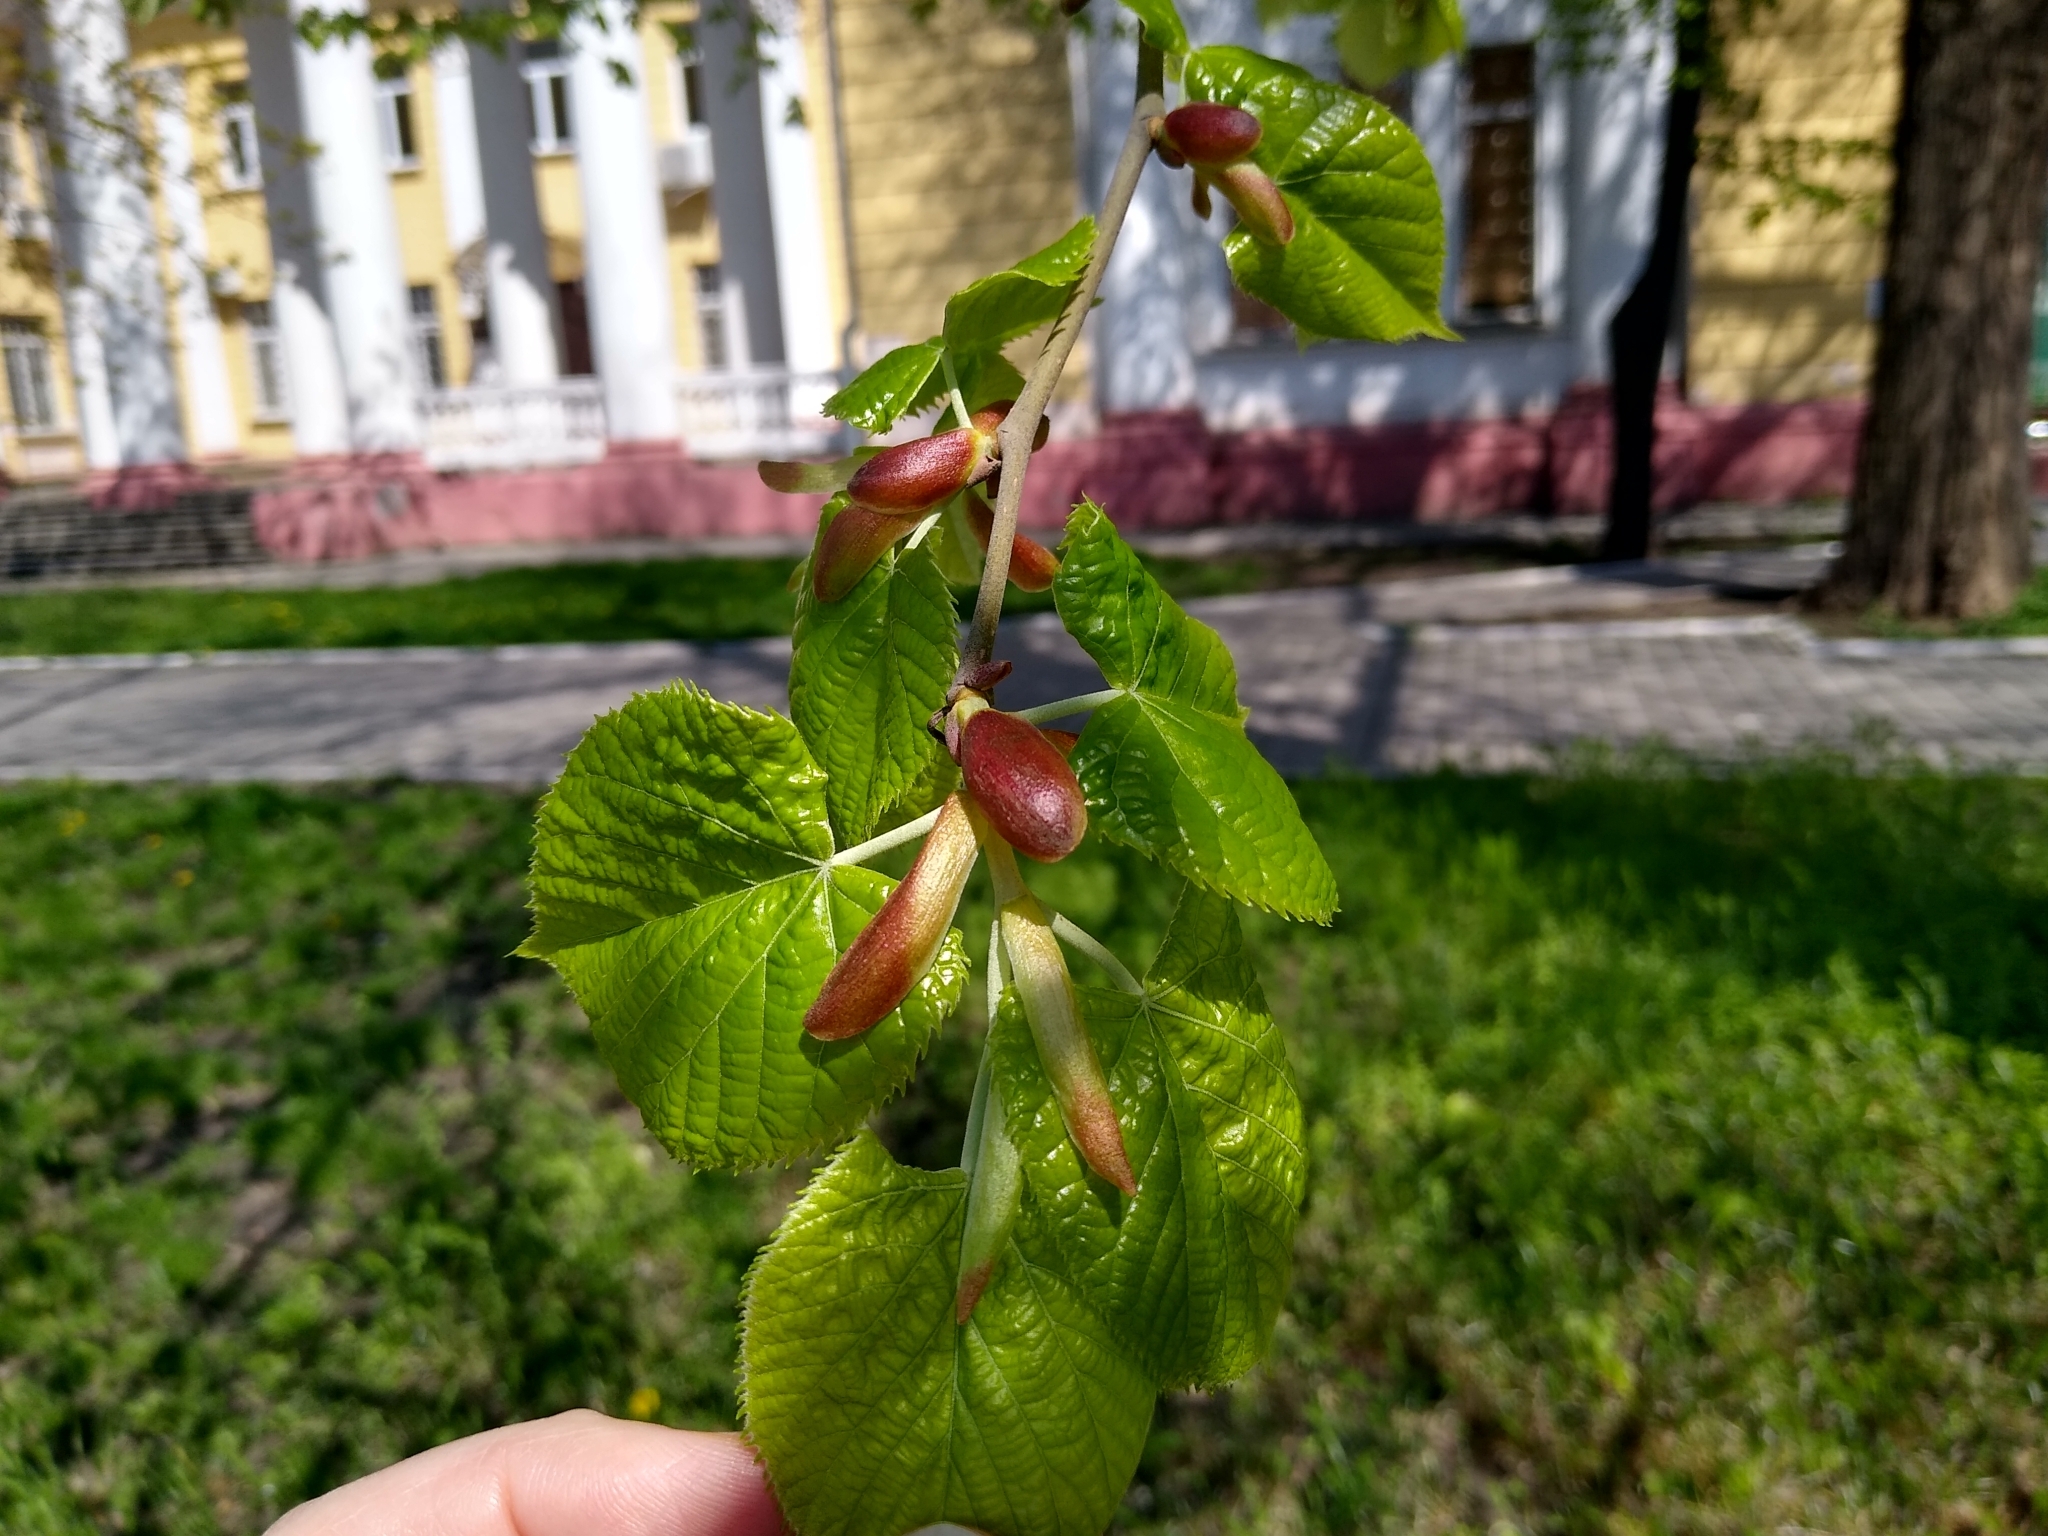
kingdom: Plantae
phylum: Tracheophyta
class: Magnoliopsida
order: Malvales
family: Malvaceae
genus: Tilia
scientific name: Tilia cordata
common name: Small-leaved lime
